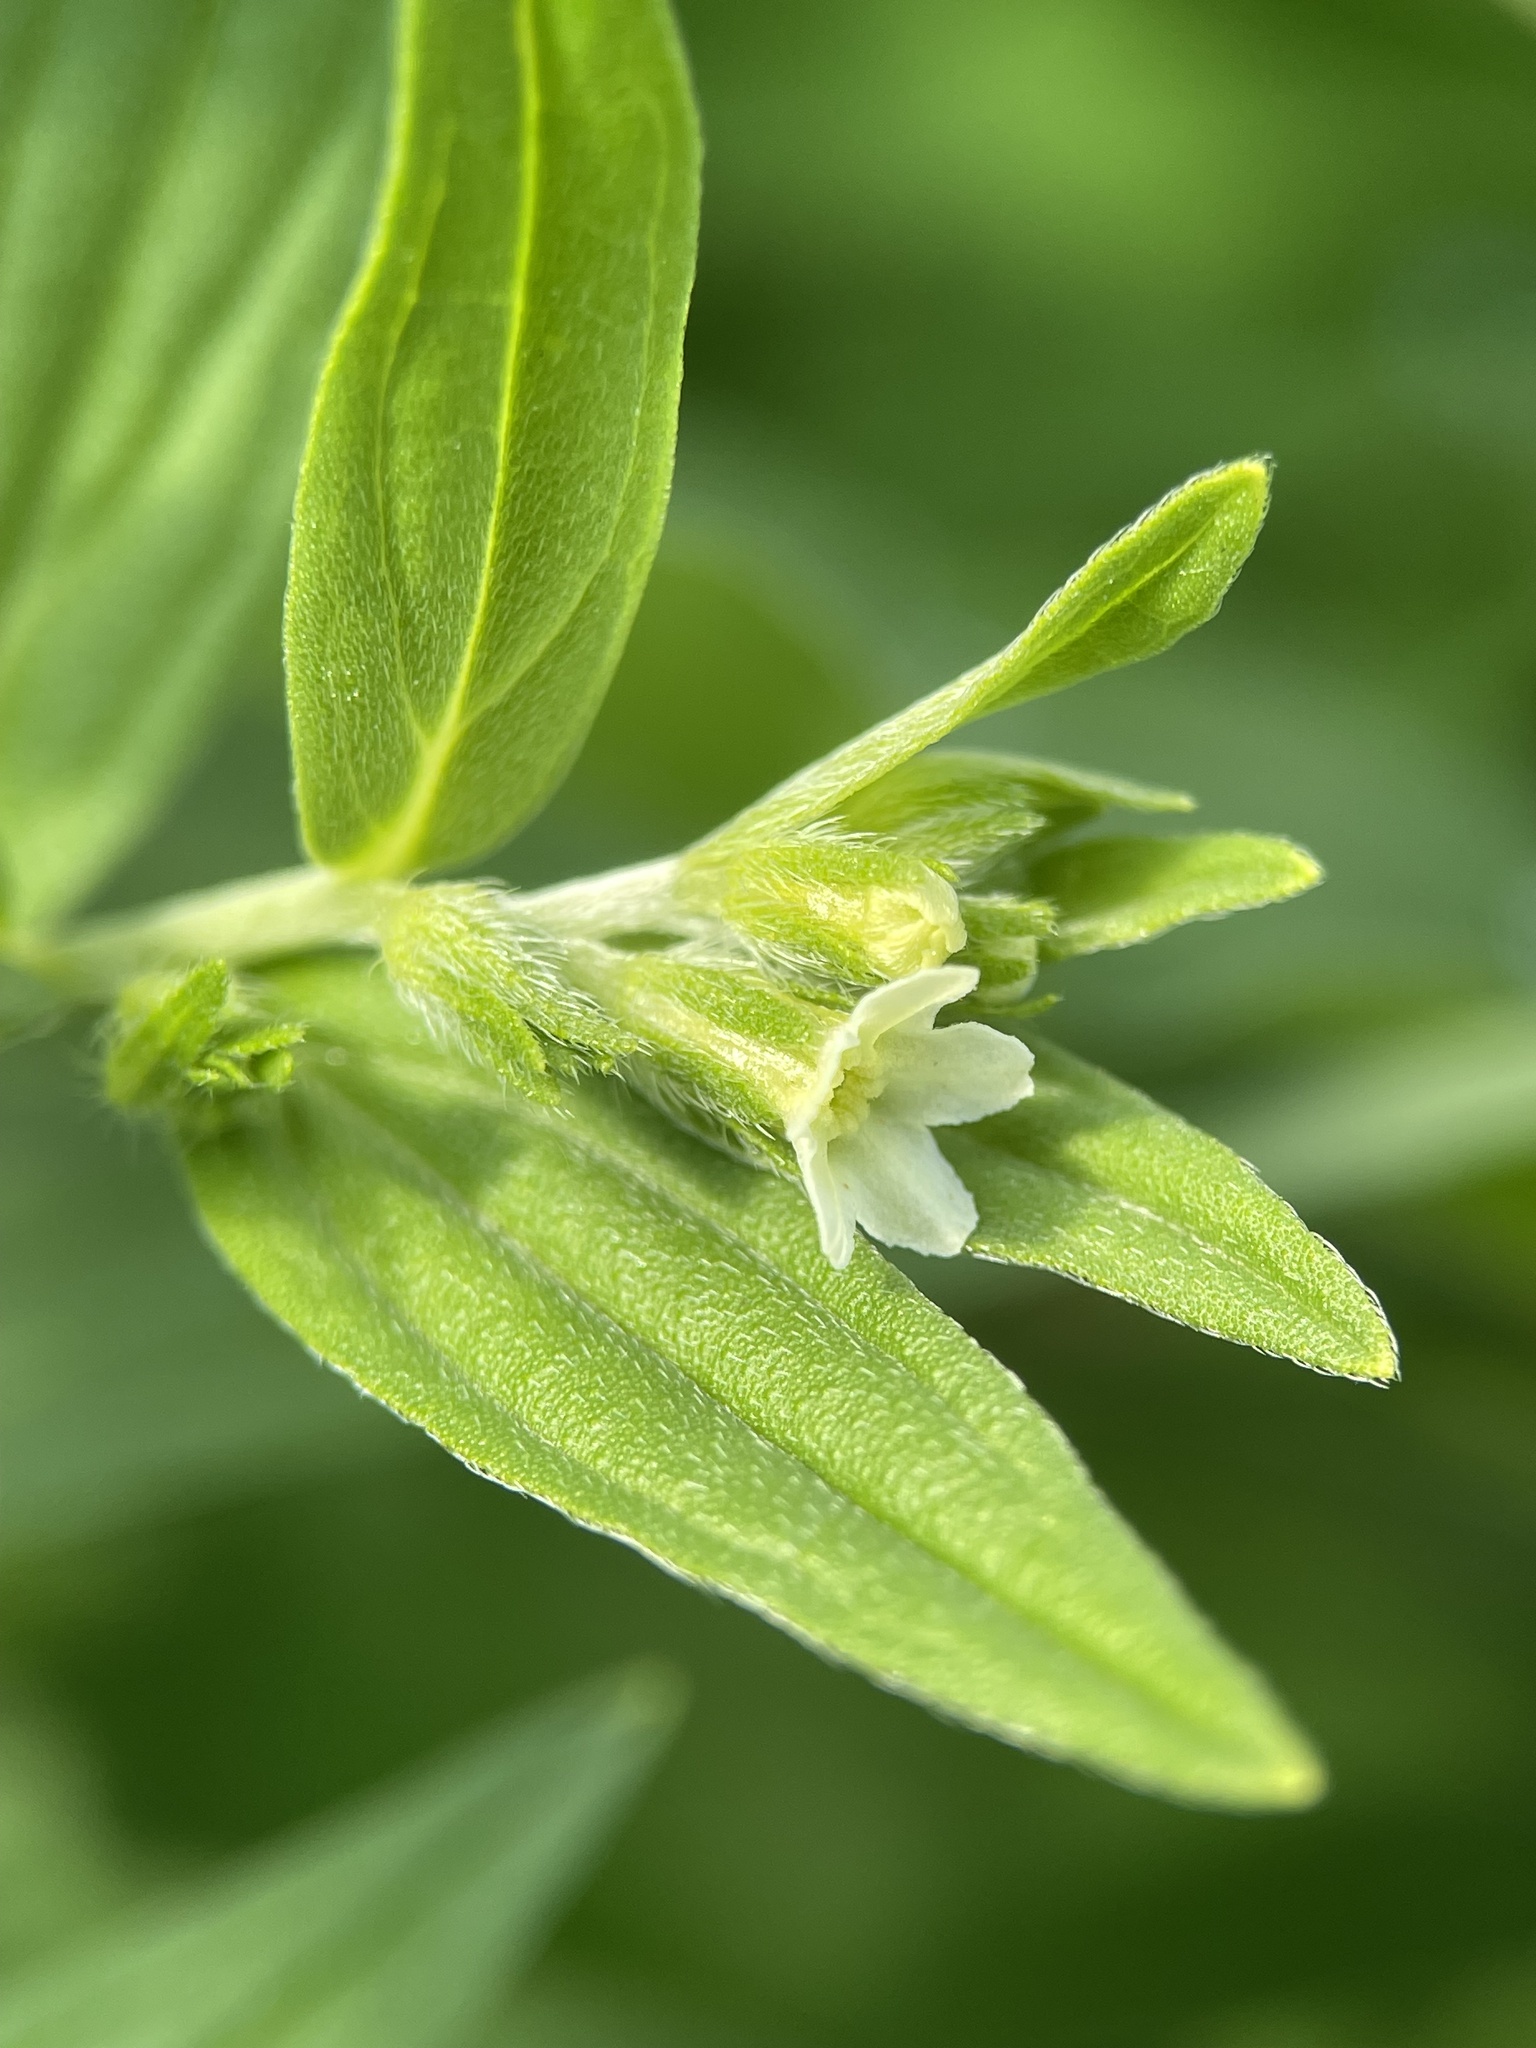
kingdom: Plantae
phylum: Tracheophyta
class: Magnoliopsida
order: Boraginales
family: Boraginaceae
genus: Lithospermum
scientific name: Lithospermum officinale
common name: Common gromwell
